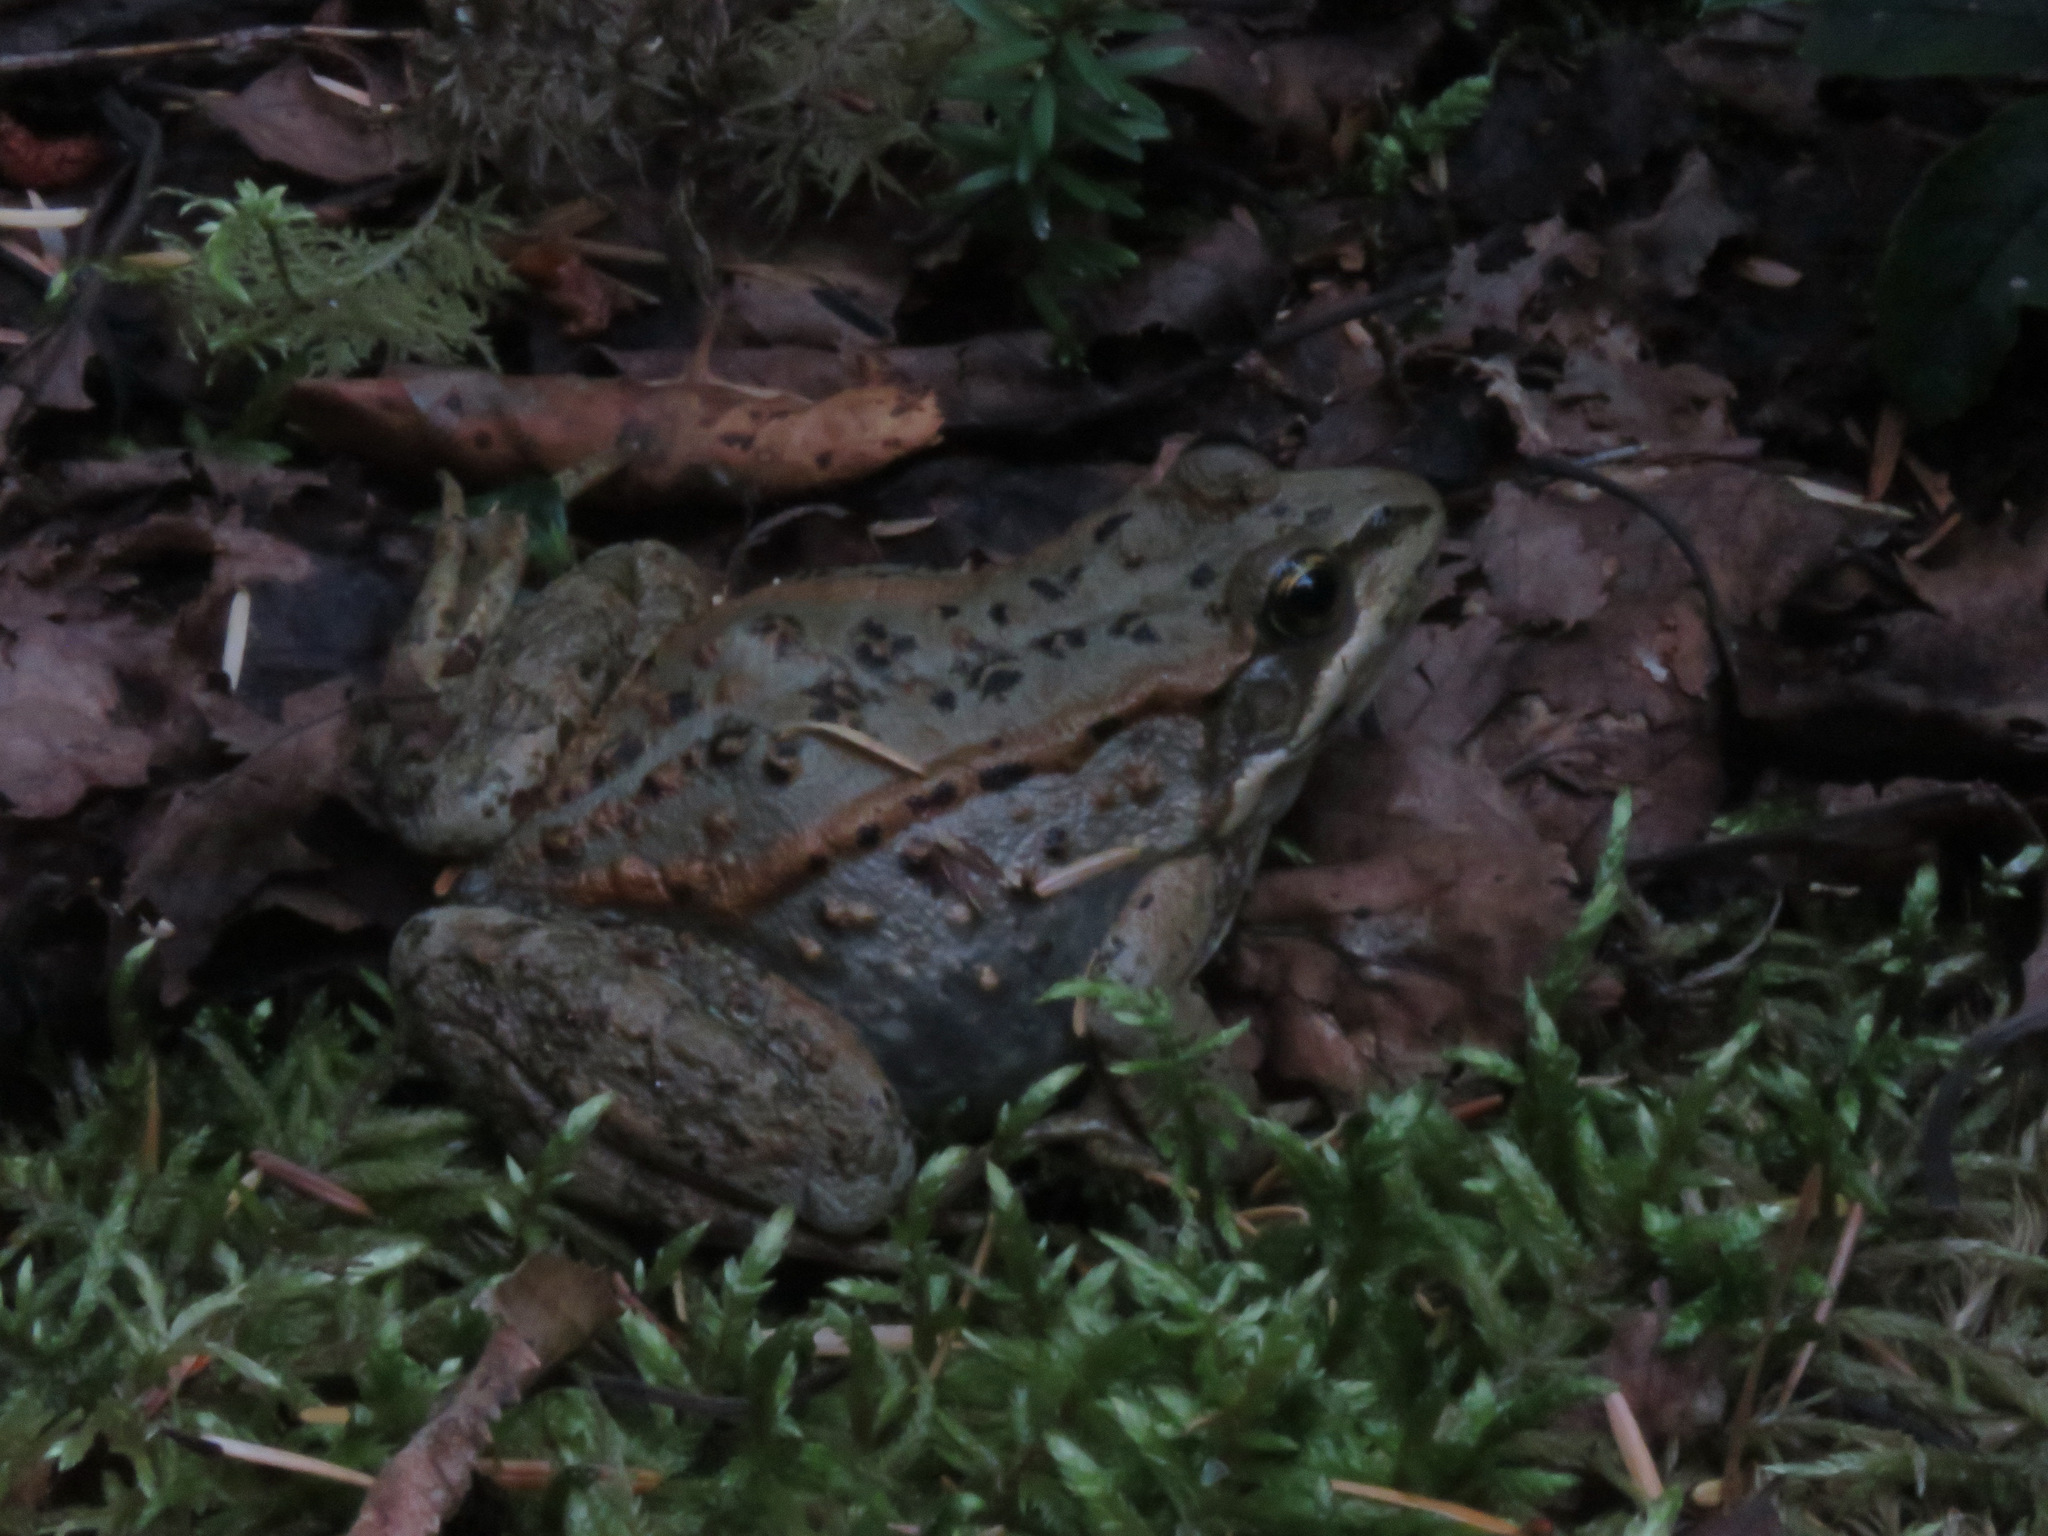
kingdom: Animalia
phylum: Chordata
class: Amphibia
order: Anura
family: Ranidae
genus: Rana
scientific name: Rana luteiventris
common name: Columbia spotted frog
